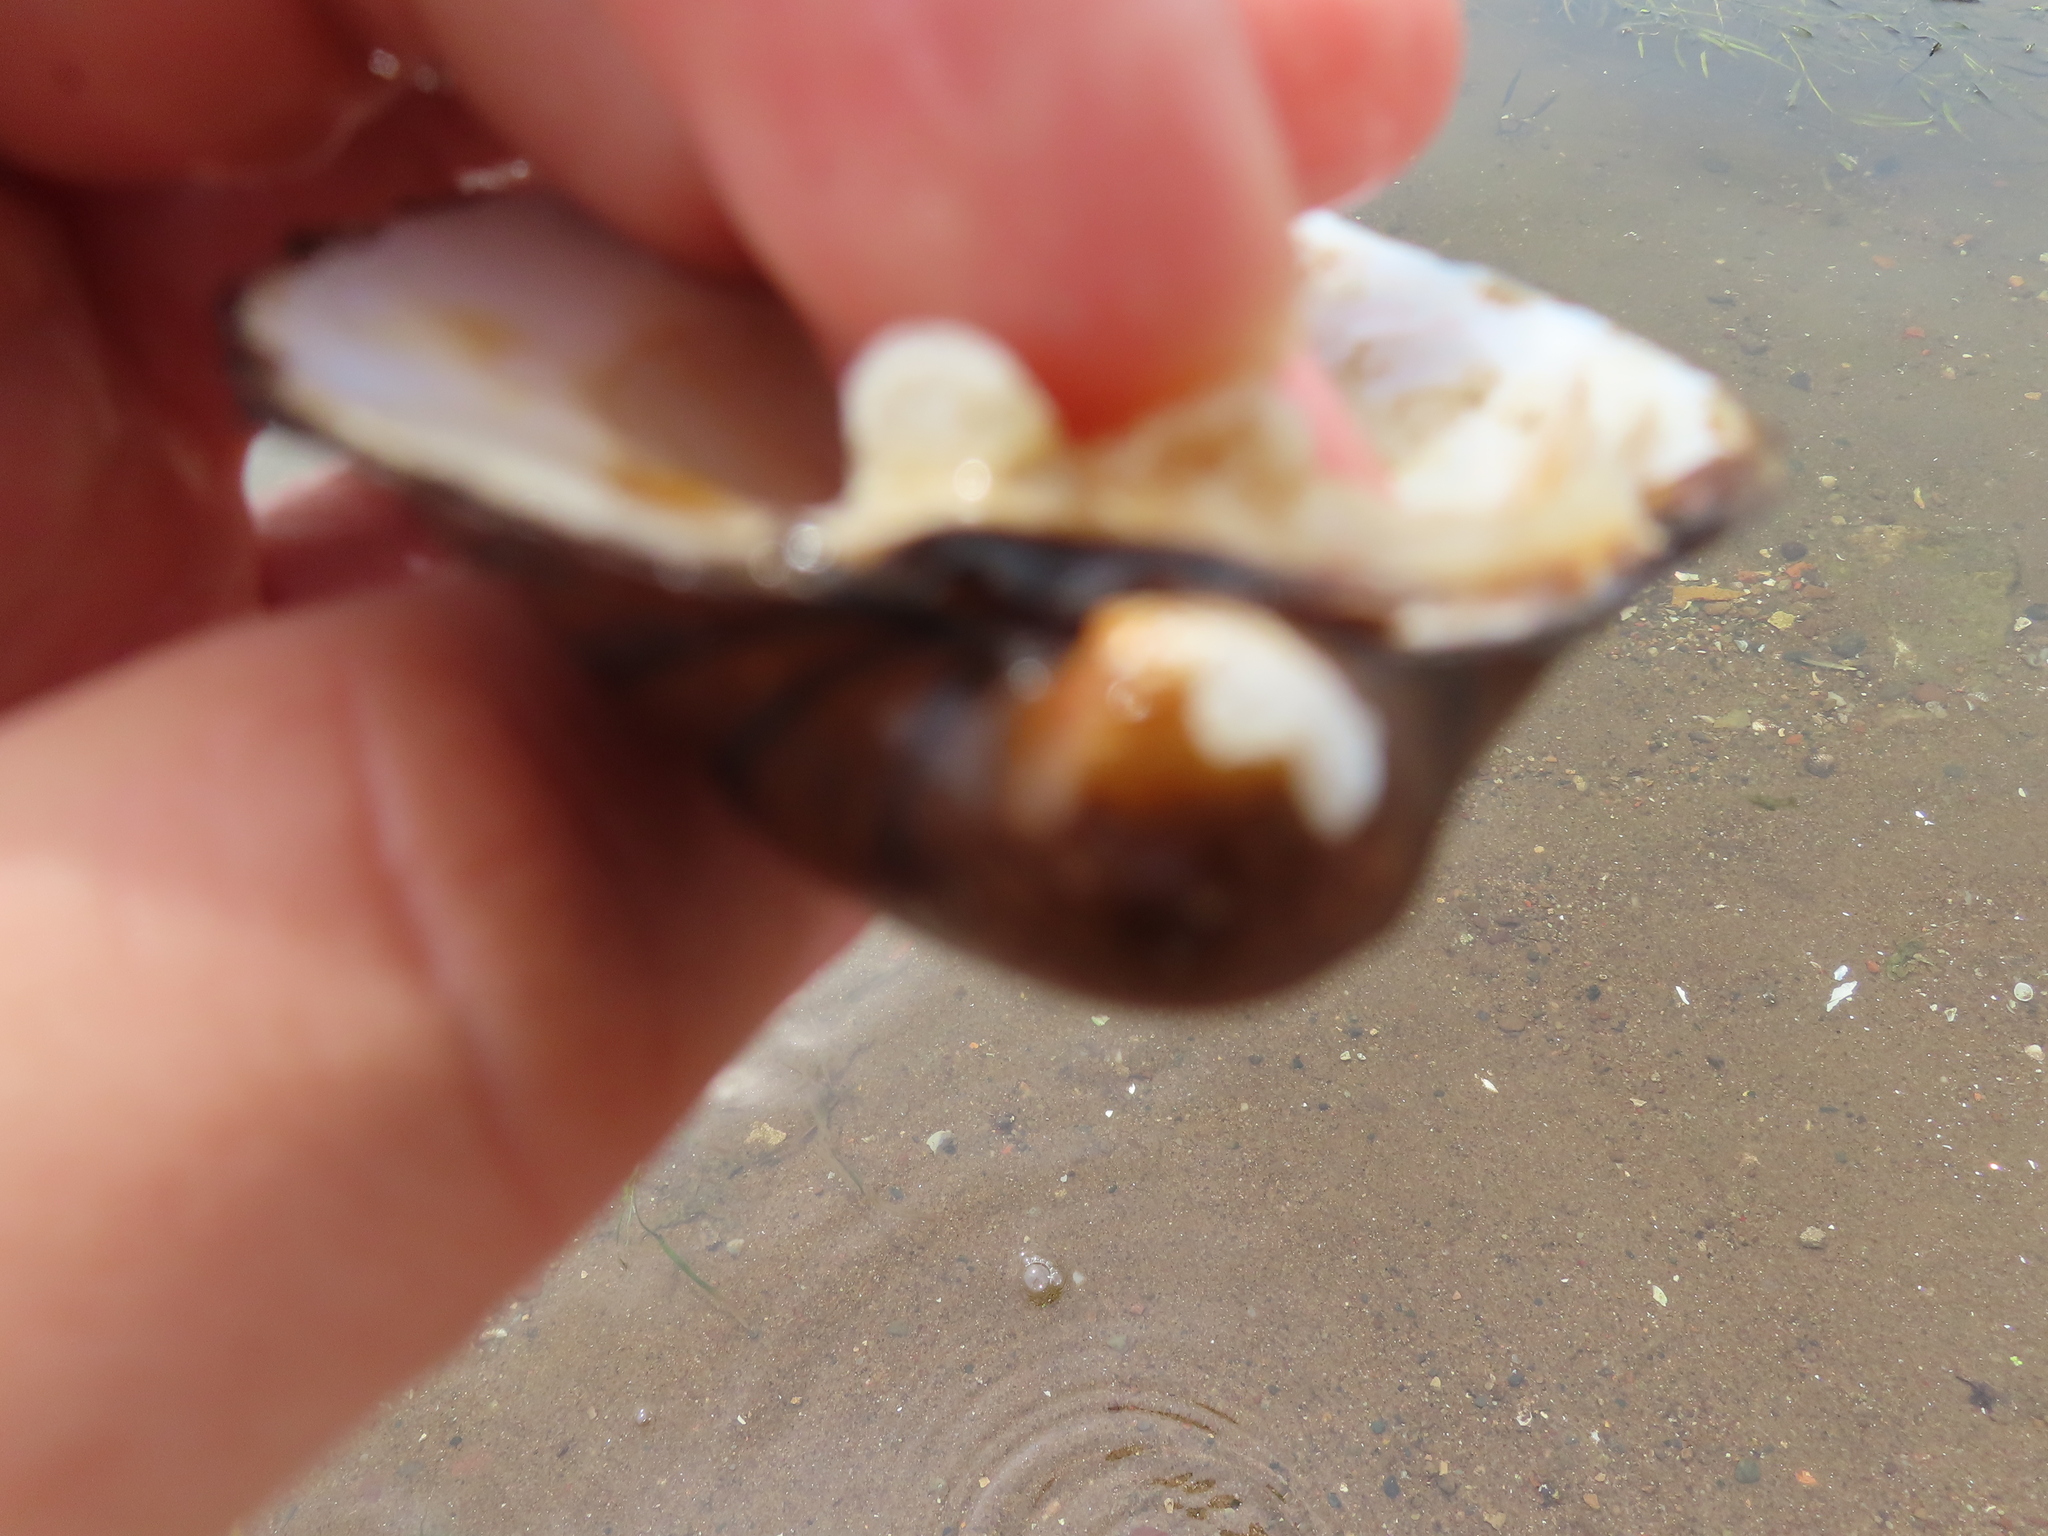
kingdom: Animalia
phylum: Mollusca
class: Bivalvia
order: Unionida
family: Unionidae
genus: Amblema
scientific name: Amblema plicata
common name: Threeridge
